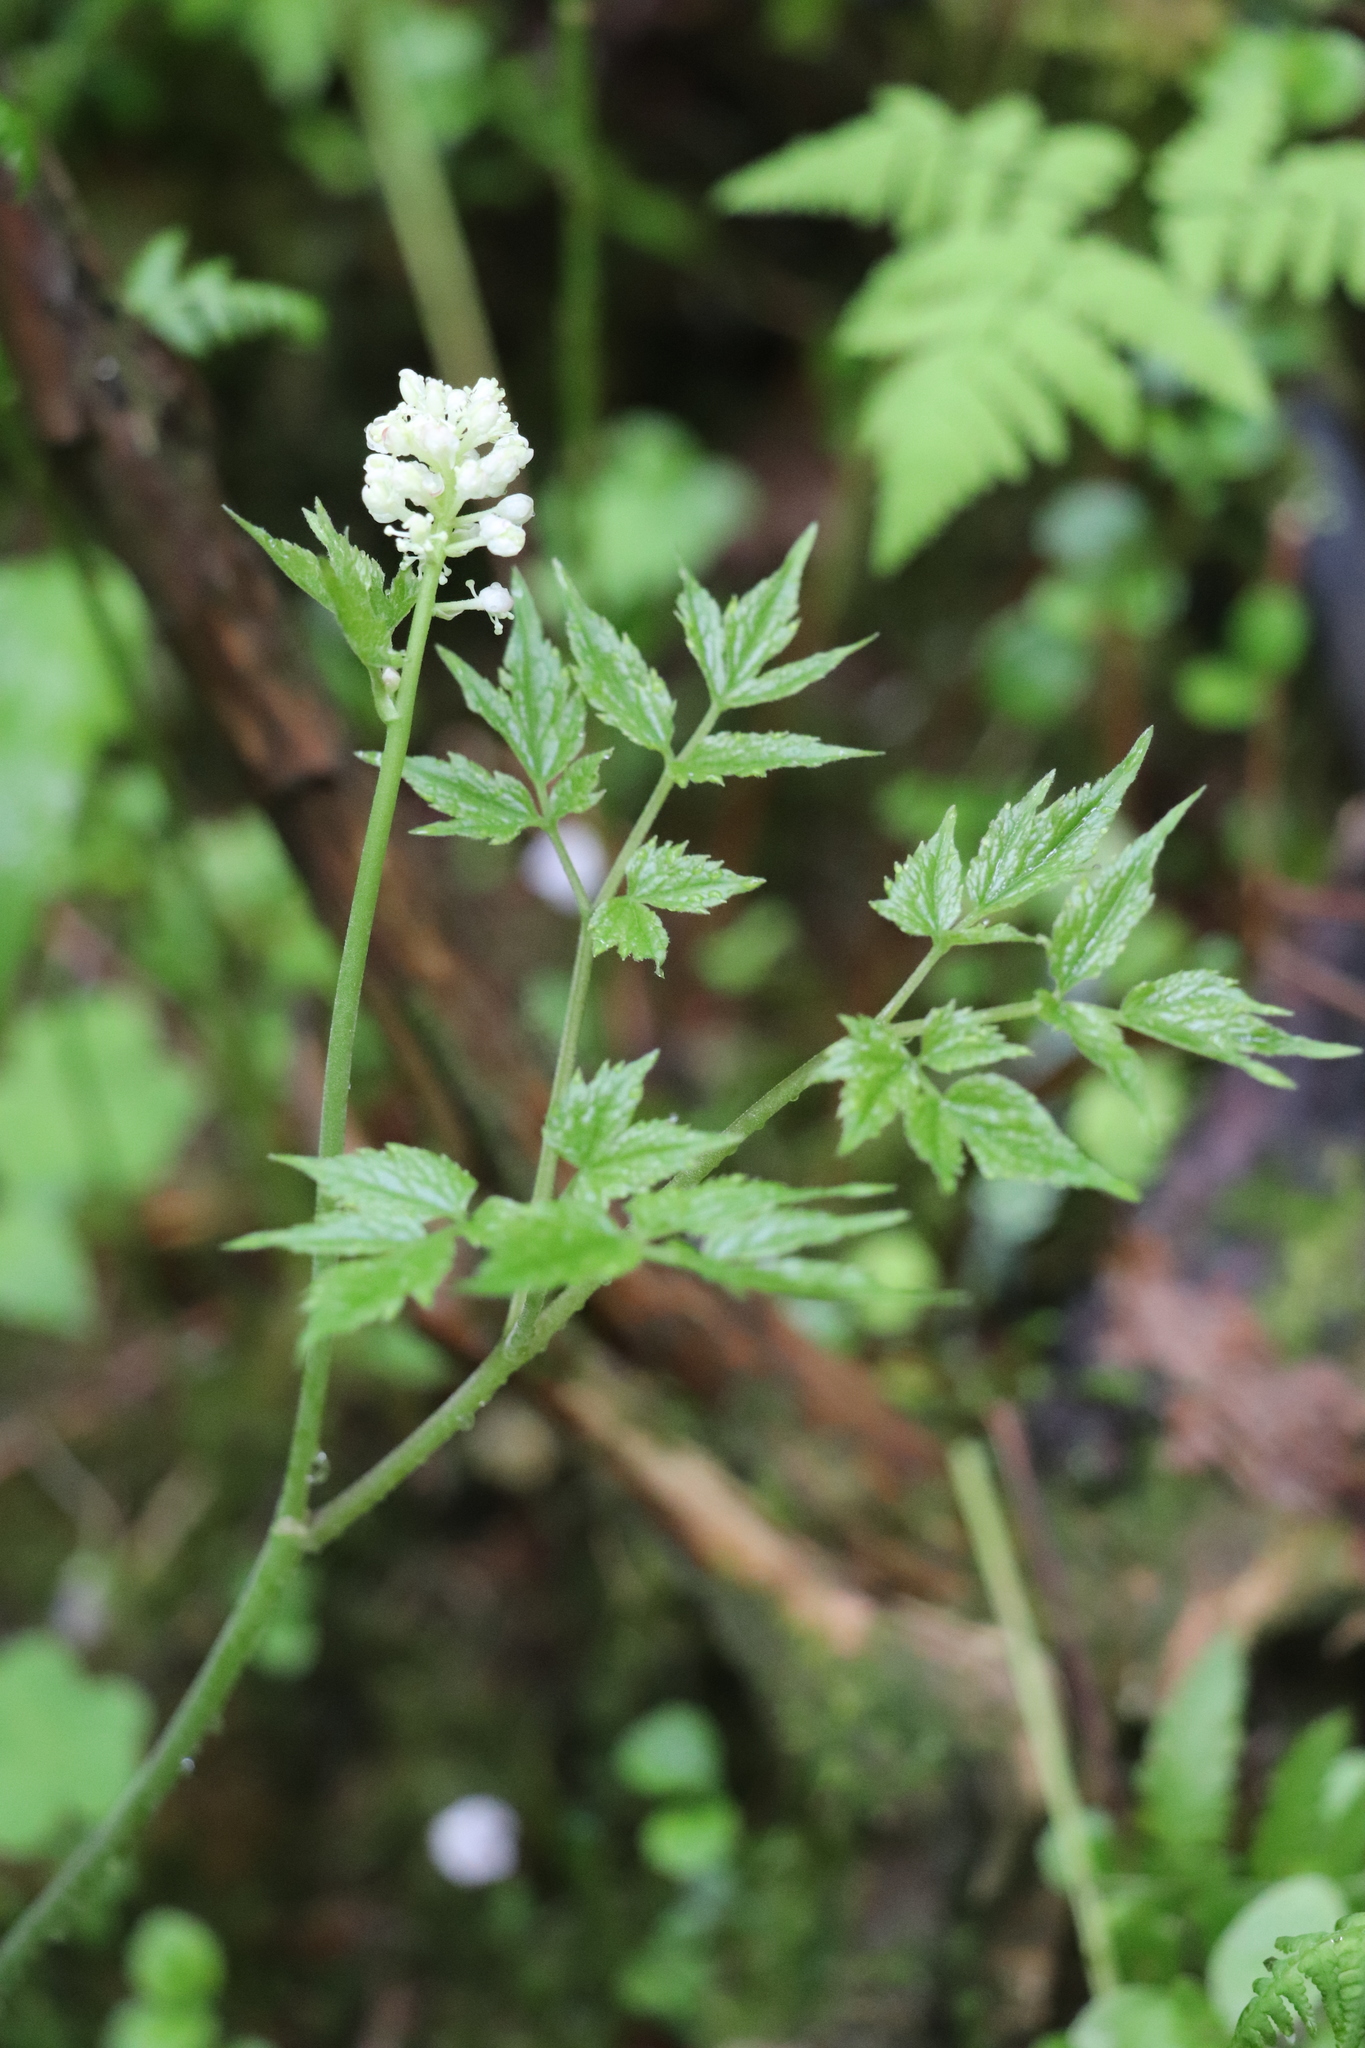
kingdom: Plantae
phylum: Tracheophyta
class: Magnoliopsida
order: Ranunculales
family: Ranunculaceae
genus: Actaea
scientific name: Actaea erythrocarpa
